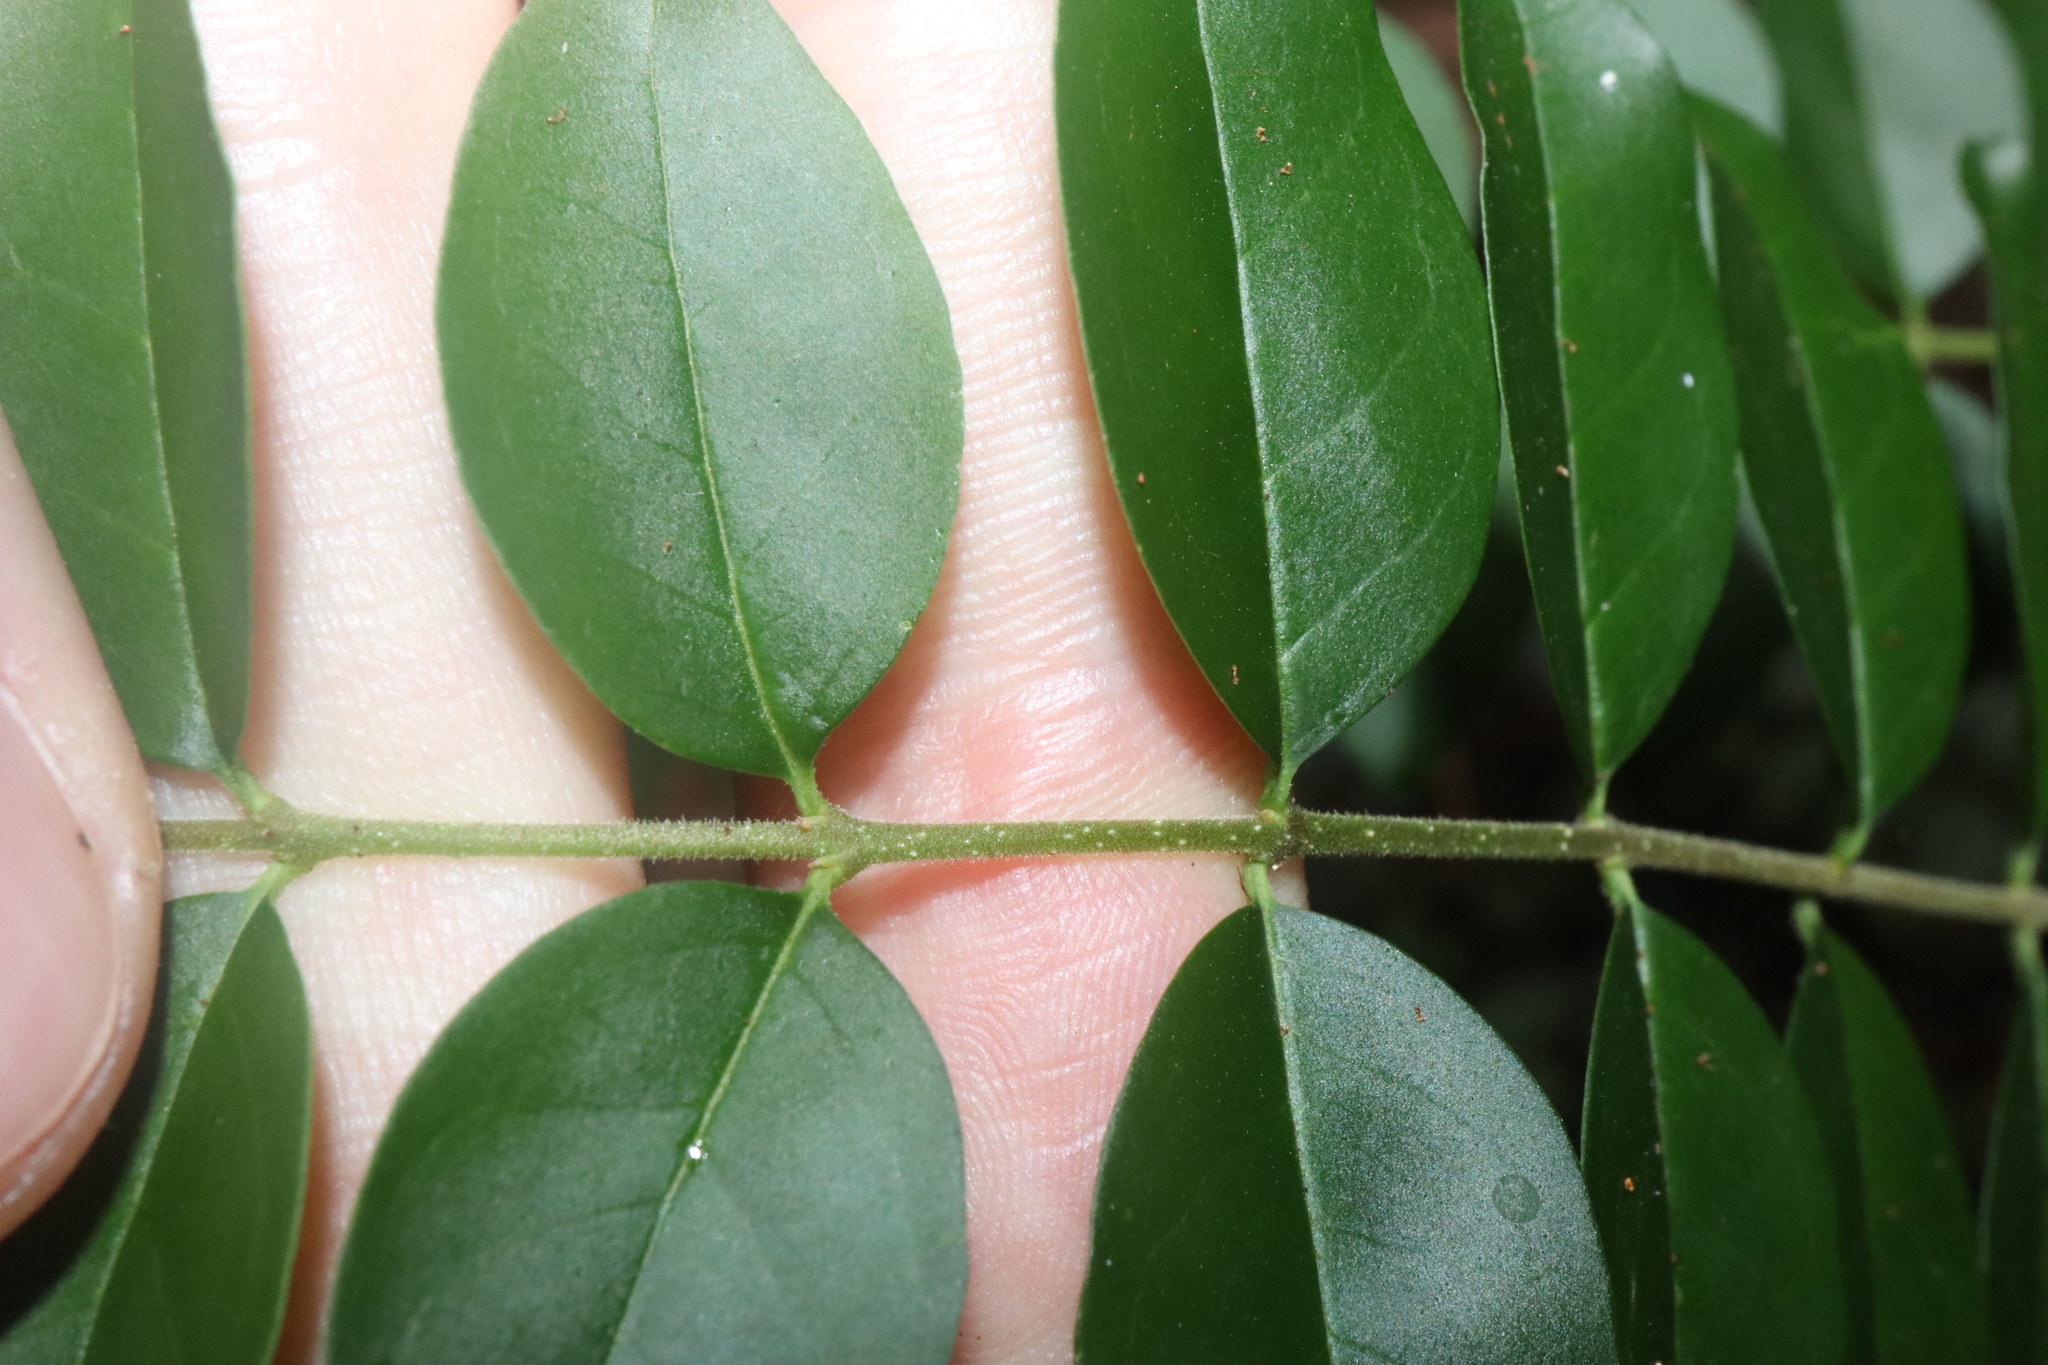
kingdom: Plantae
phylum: Tracheophyta
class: Magnoliopsida
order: Lamiales
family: Oleaceae
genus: Ligustrum
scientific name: Ligustrum sinense
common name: Chinese privet
